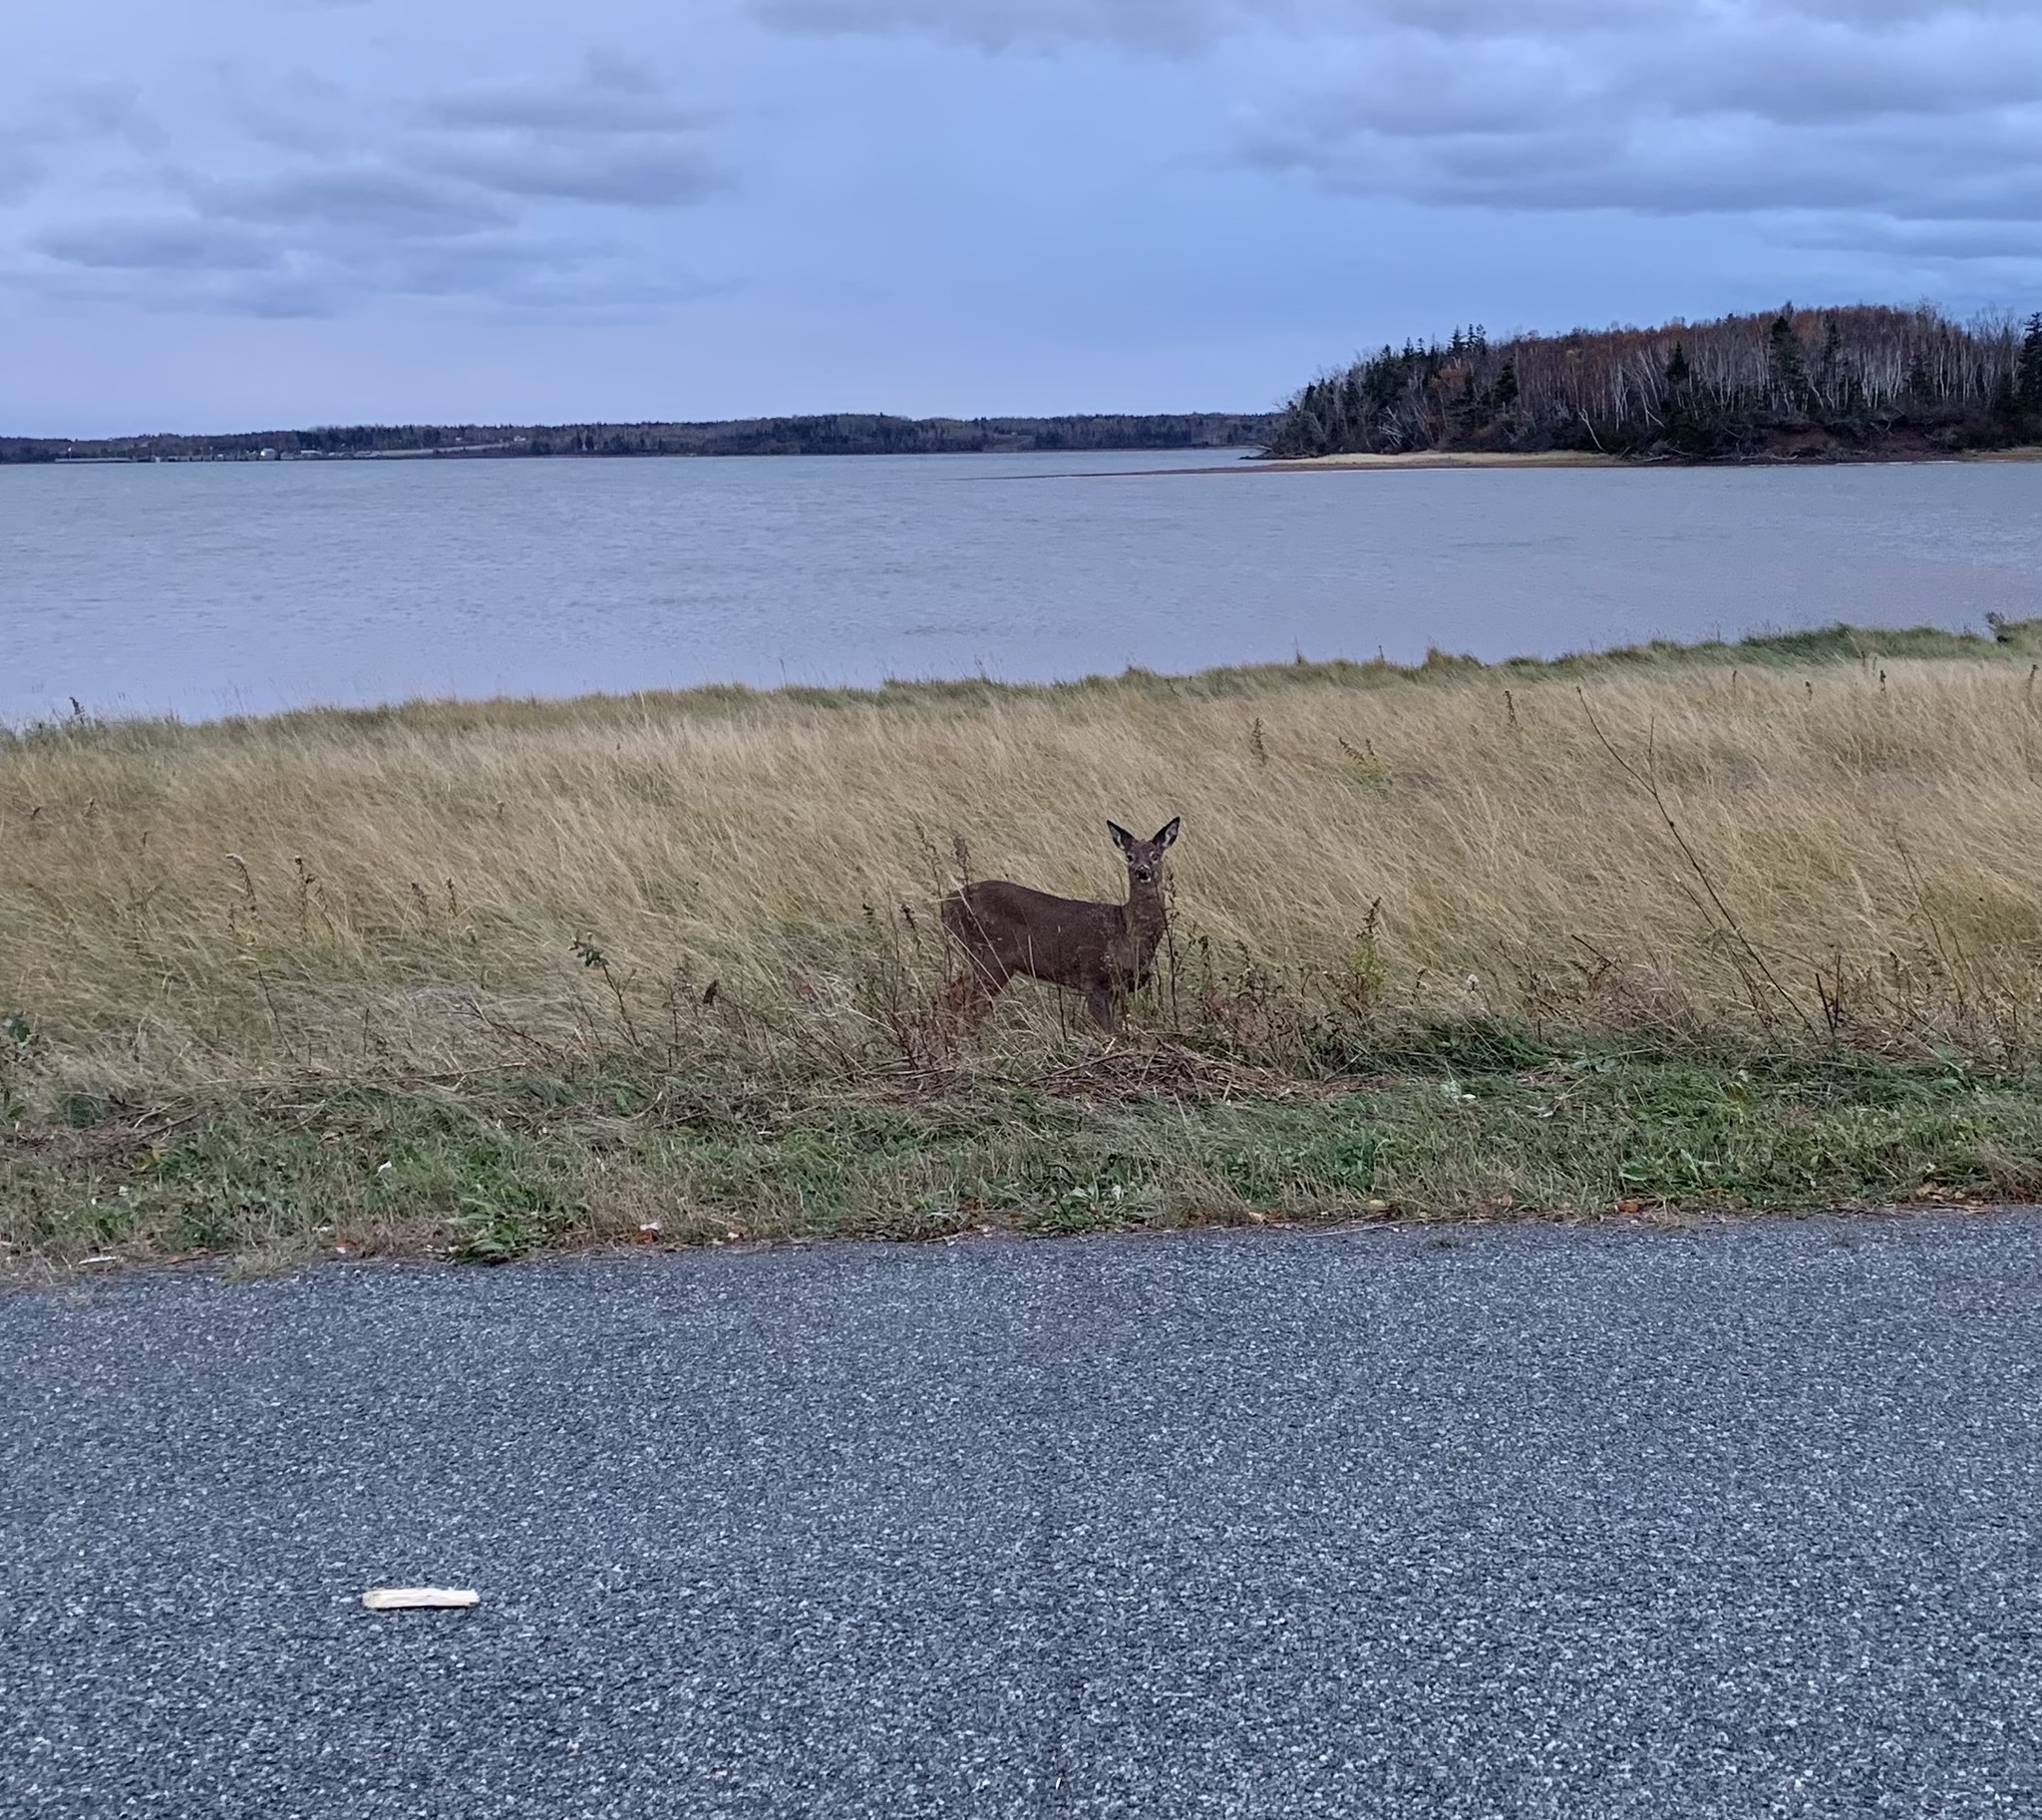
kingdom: Animalia
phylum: Chordata
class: Mammalia
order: Artiodactyla
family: Cervidae
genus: Odocoileus
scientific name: Odocoileus virginianus
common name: White-tailed deer
